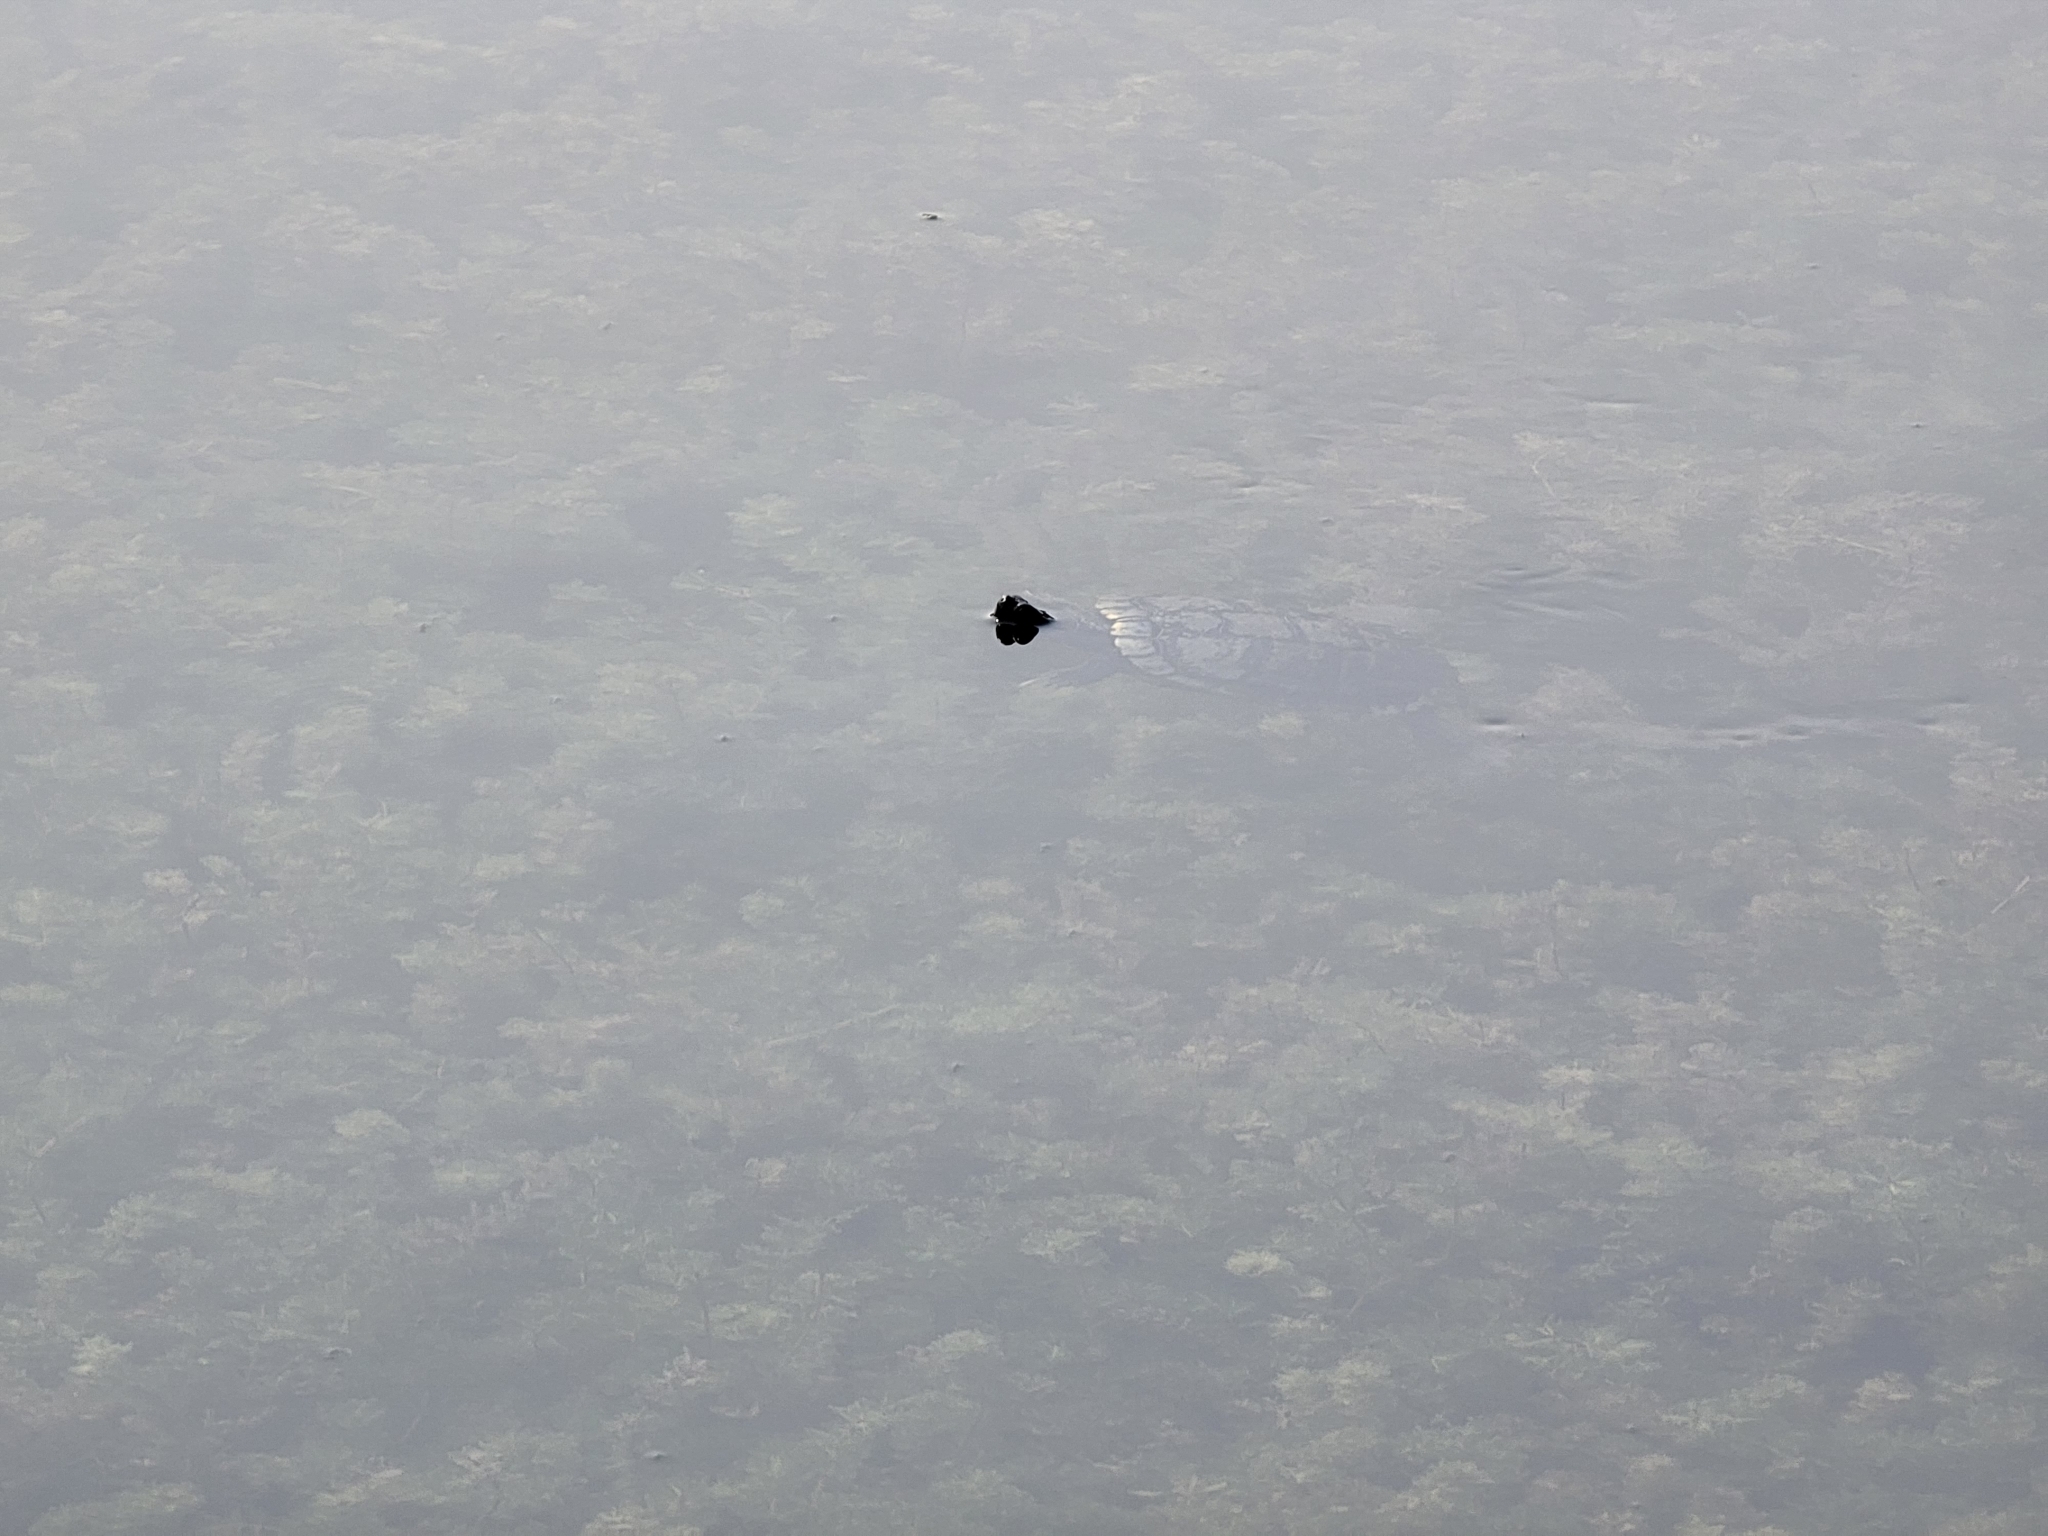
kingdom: Animalia
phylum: Chordata
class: Testudines
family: Emydidae
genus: Trachemys
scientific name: Trachemys scripta
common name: Slider
